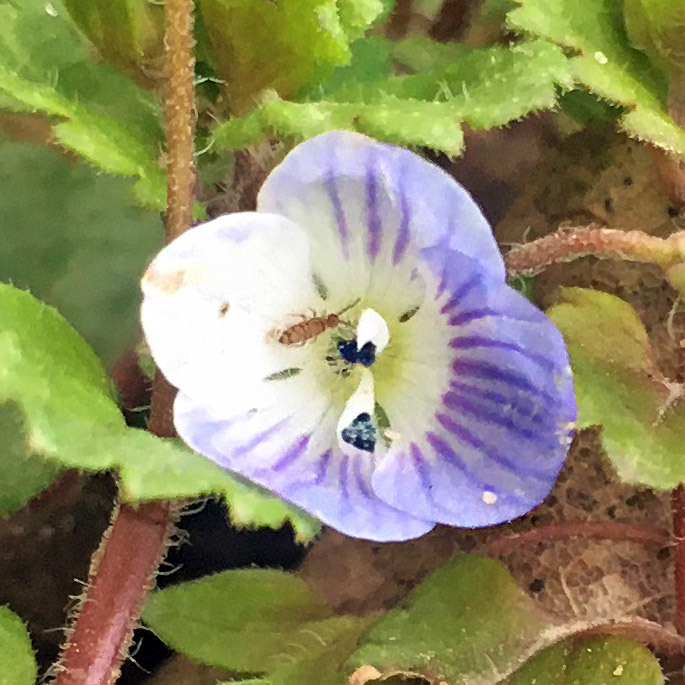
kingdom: Animalia
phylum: Arthropoda
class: Collembola
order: Entomobryomorpha
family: Entomobryidae
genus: Entomobrya
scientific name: Entomobrya
